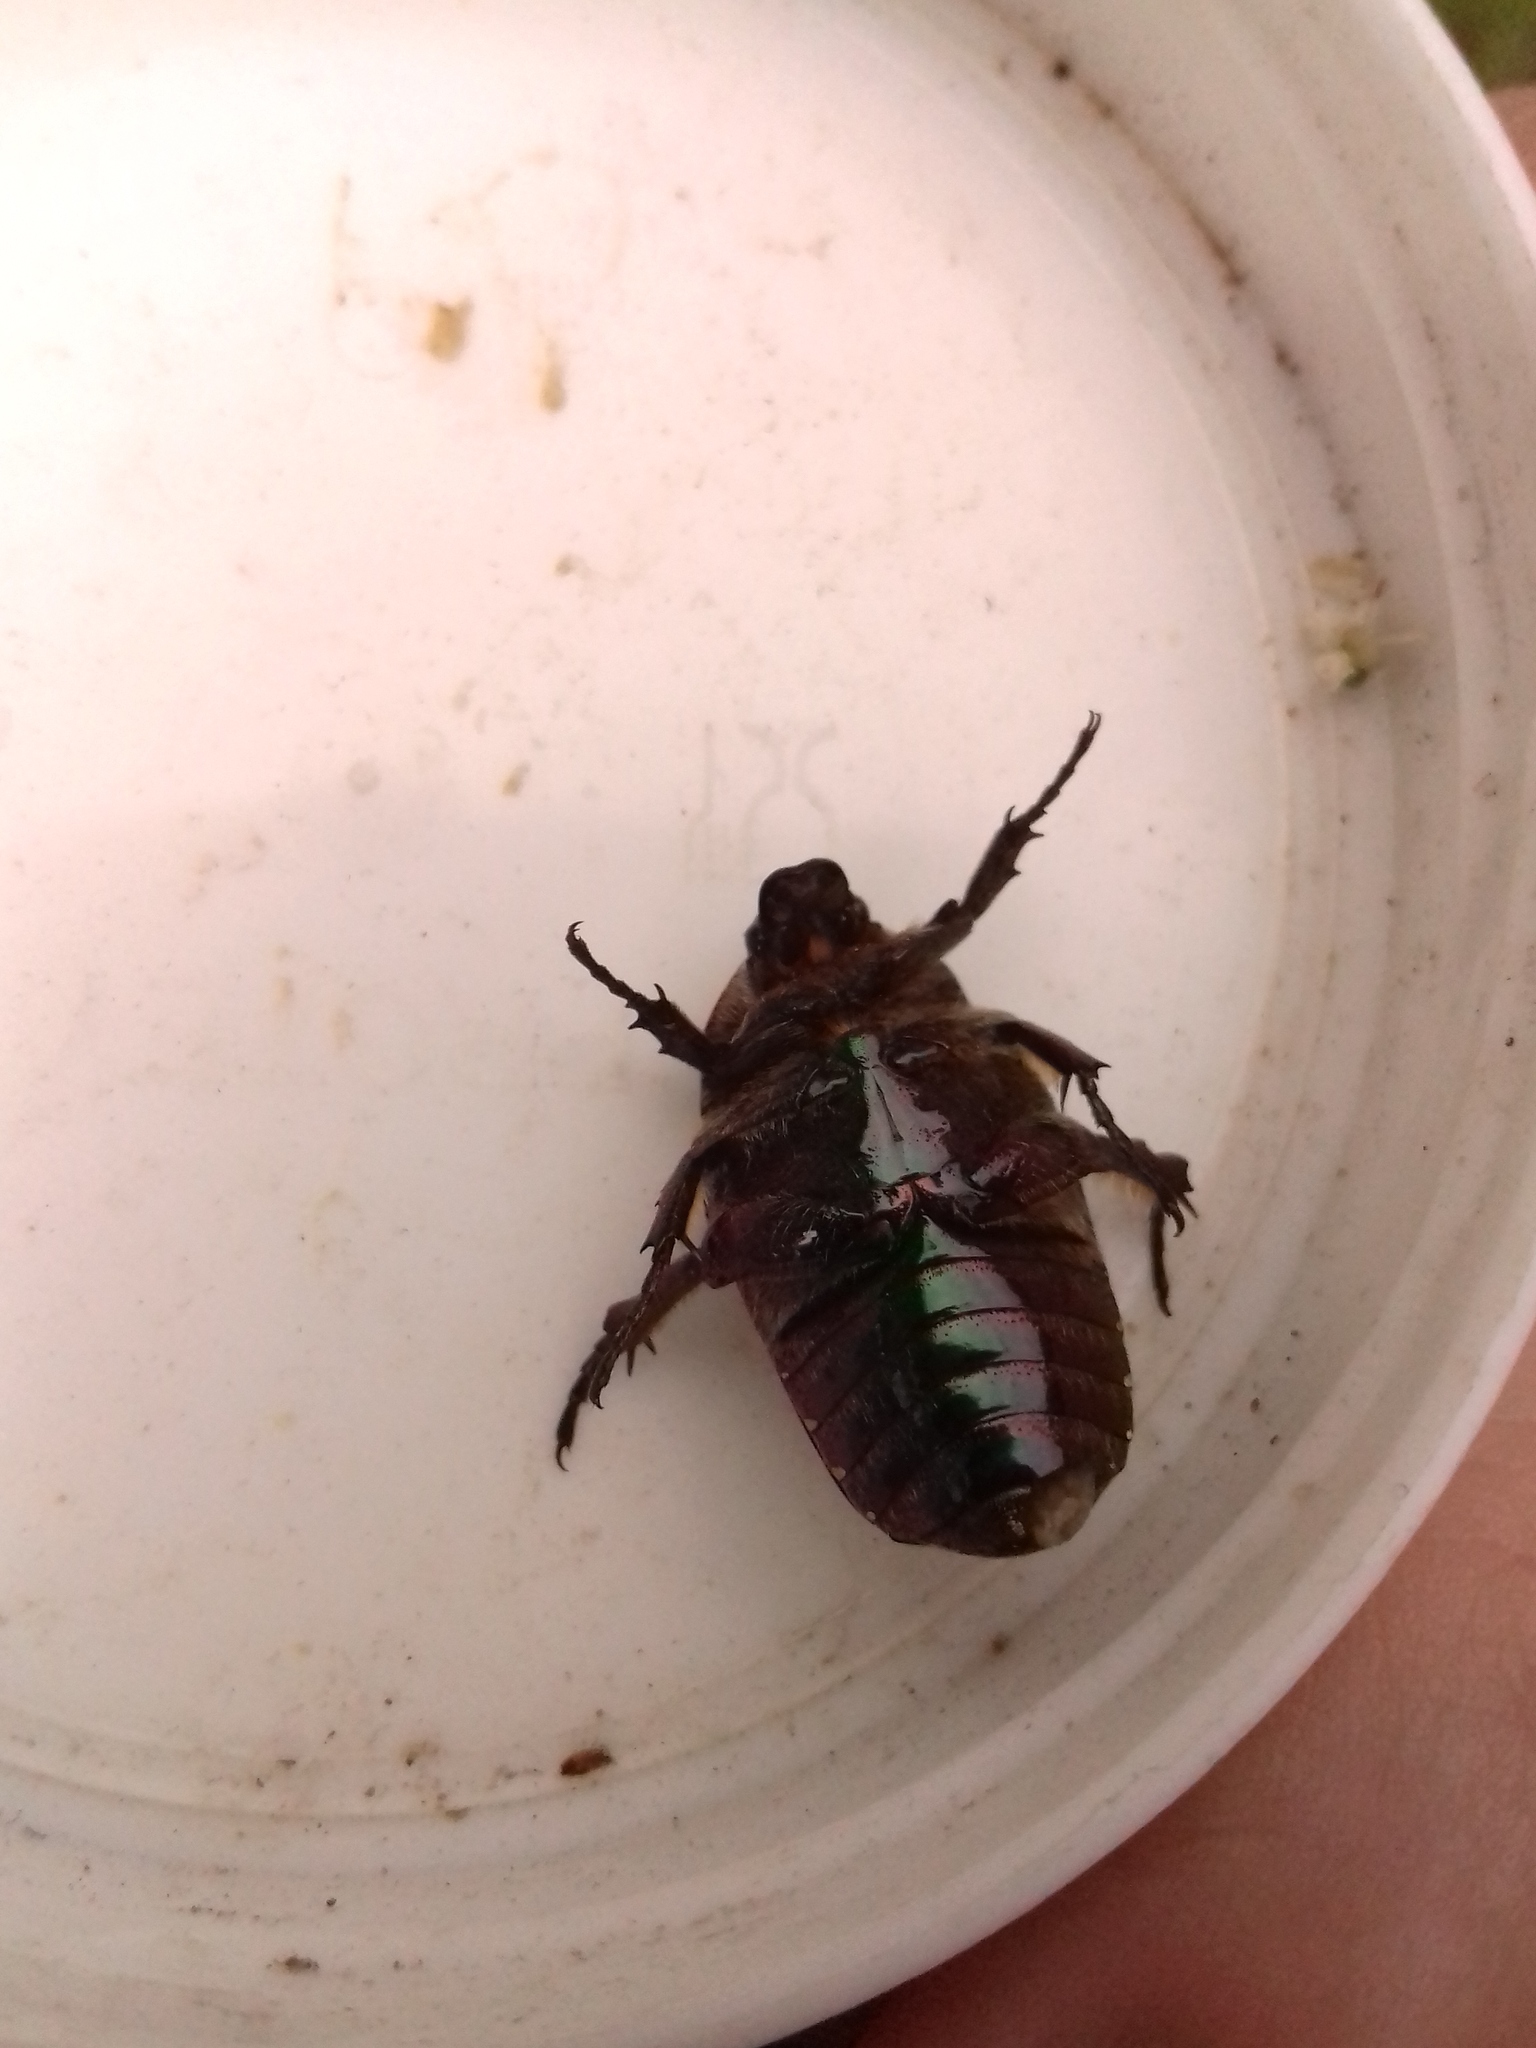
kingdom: Animalia
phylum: Arthropoda
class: Insecta
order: Coleoptera
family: Scarabaeidae
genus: Protaetia
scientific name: Protaetia cuprea
